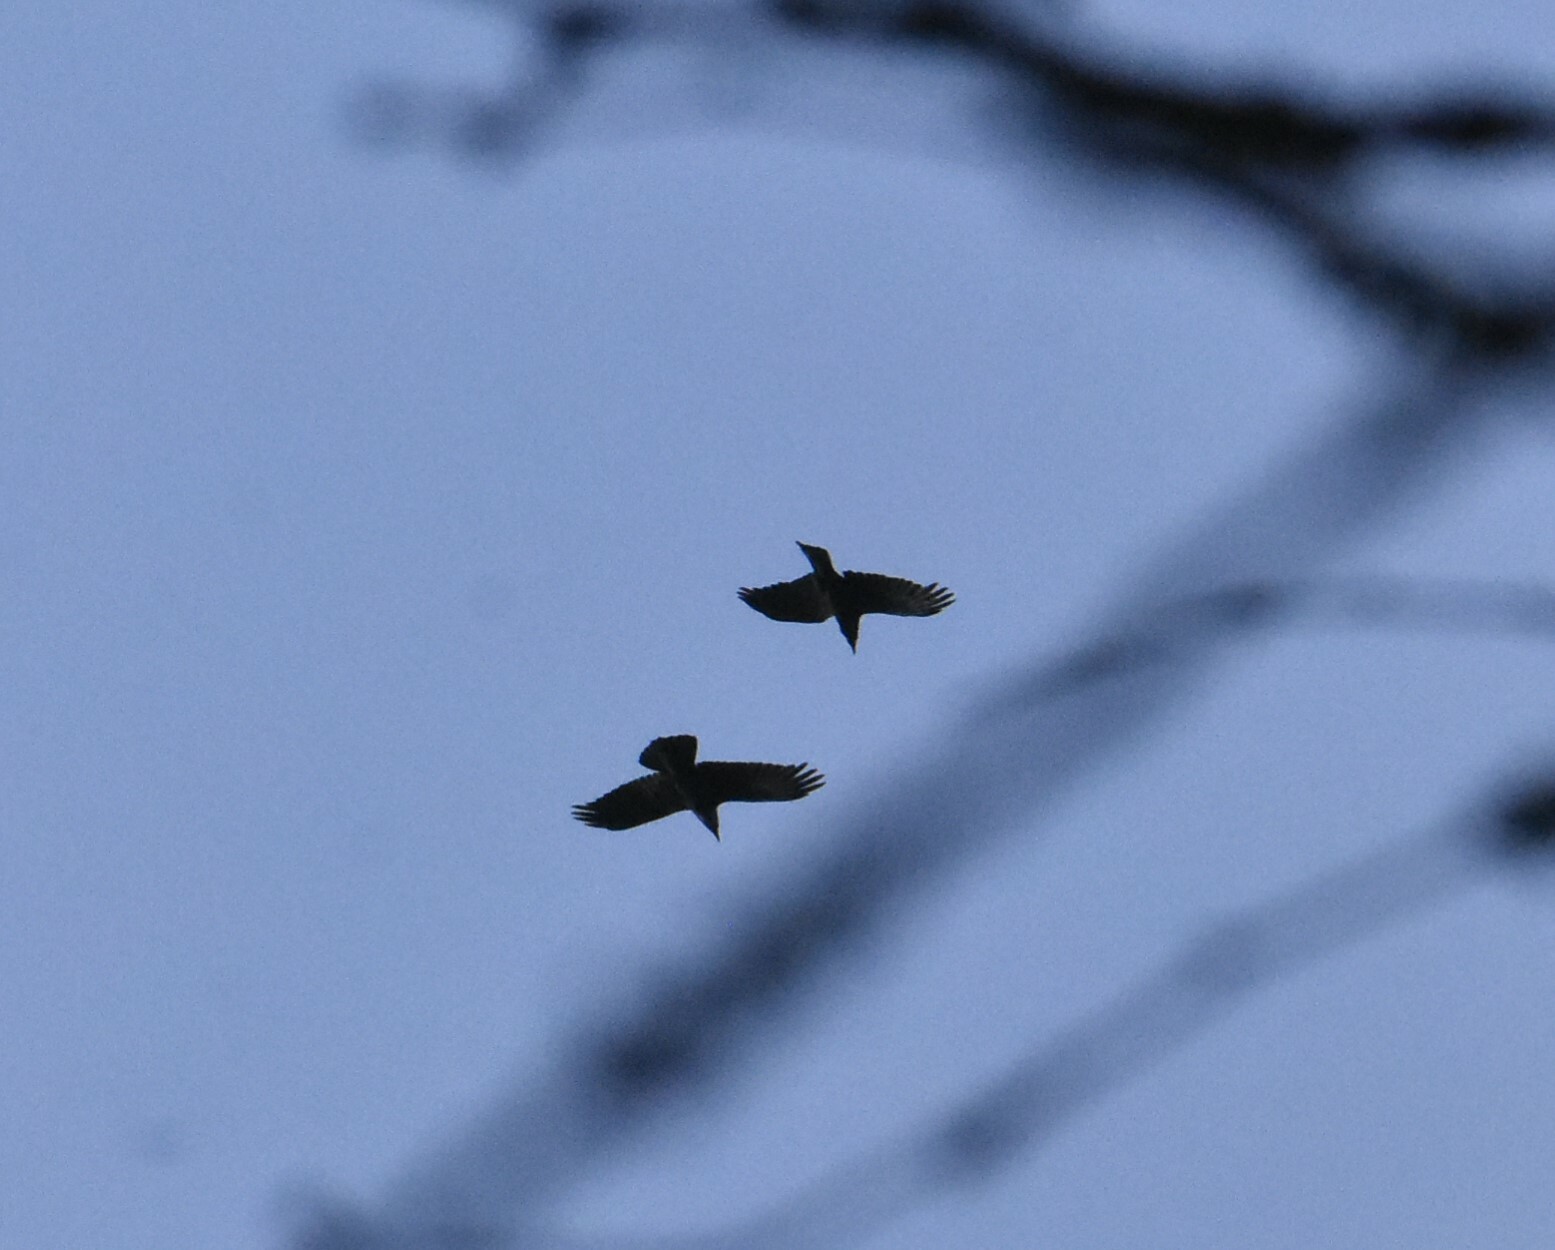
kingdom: Animalia
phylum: Chordata
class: Aves
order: Passeriformes
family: Corvidae
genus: Corvus
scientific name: Corvus corax
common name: Common raven
